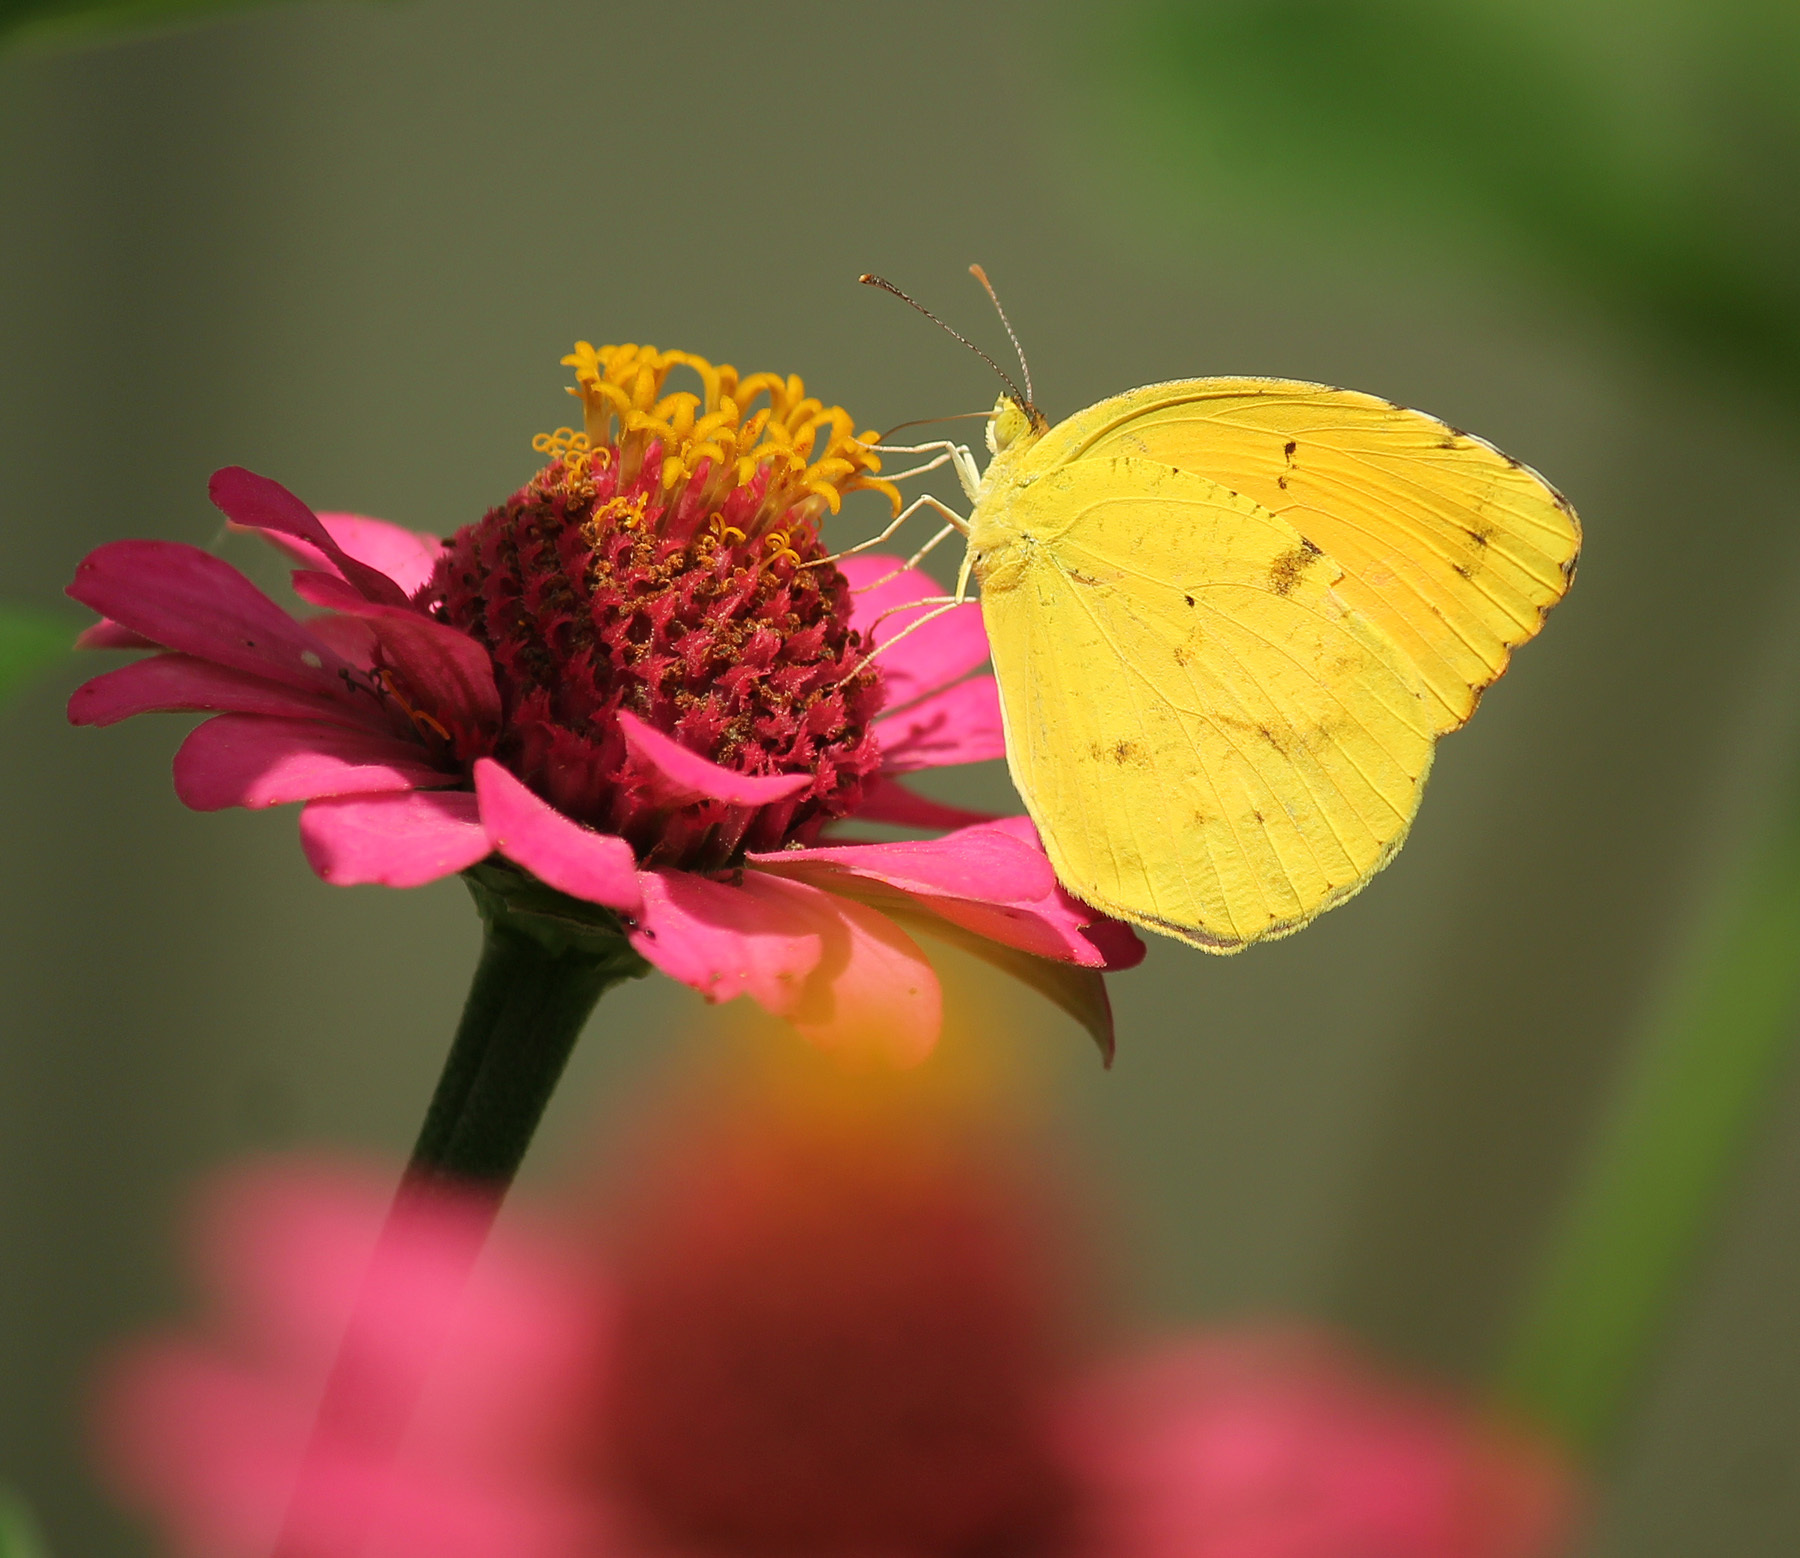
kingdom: Animalia
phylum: Arthropoda
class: Insecta
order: Lepidoptera
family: Pieridae
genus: Abaeis
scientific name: Abaeis nicippe
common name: Sleepy orange
